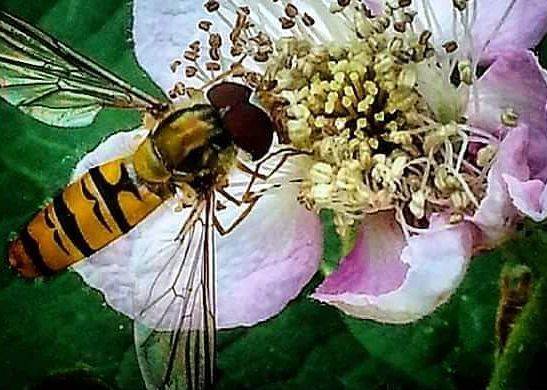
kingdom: Animalia
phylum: Arthropoda
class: Insecta
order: Diptera
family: Syrphidae
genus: Episyrphus
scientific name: Episyrphus balteatus
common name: Marmalade hoverfly
